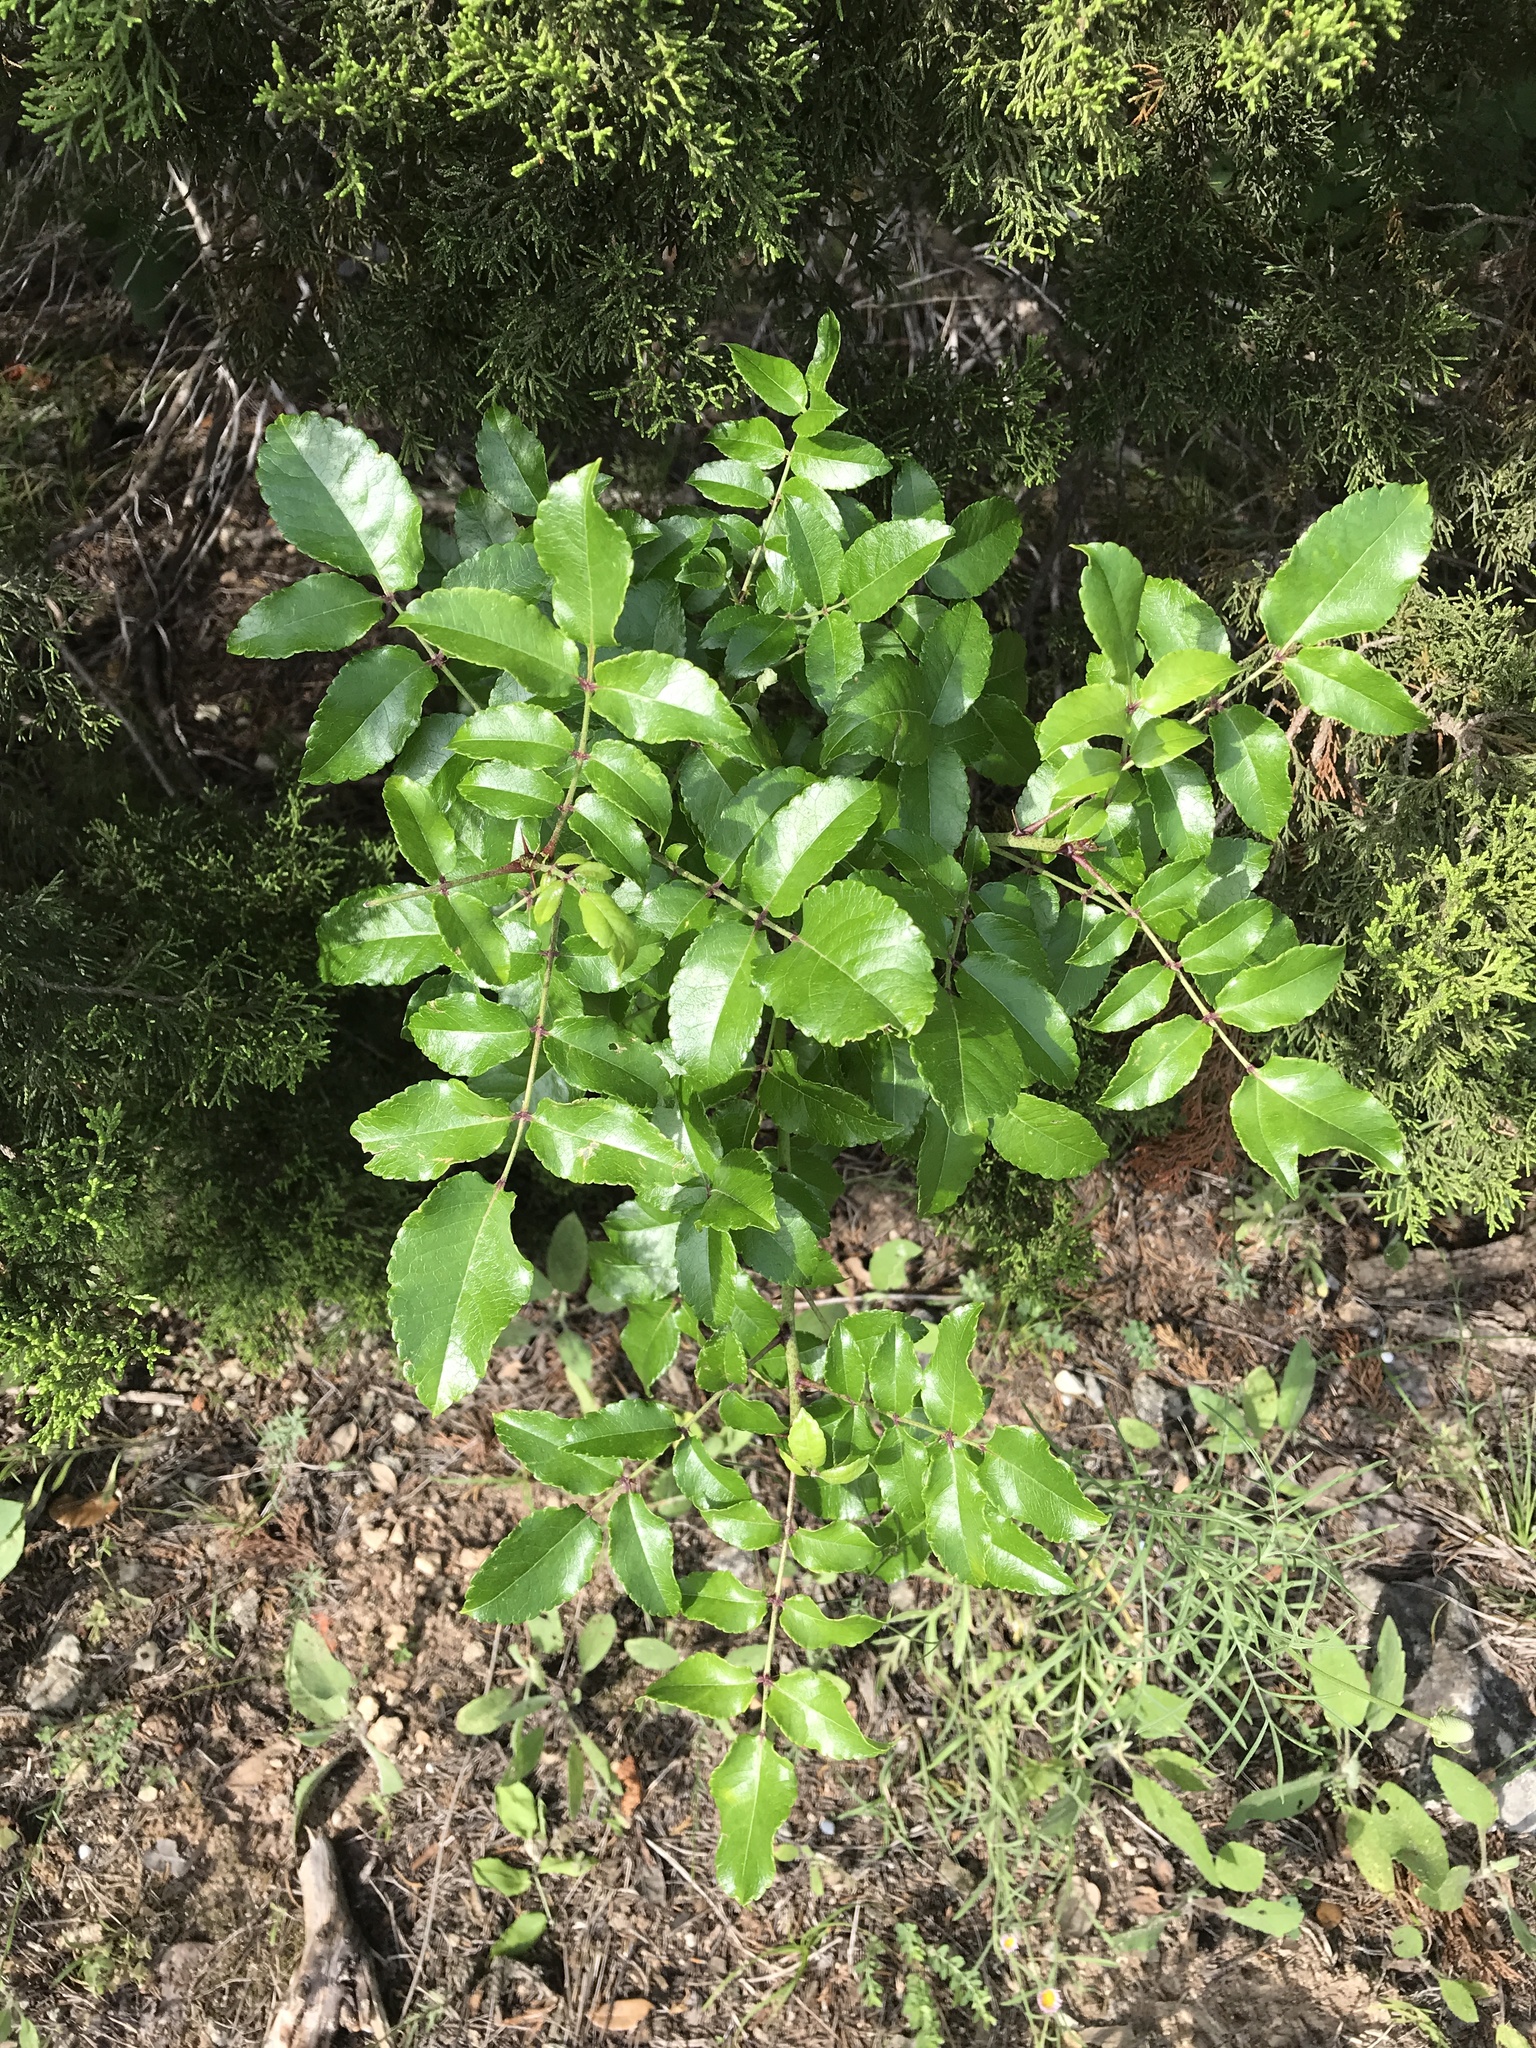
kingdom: Plantae
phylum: Tracheophyta
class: Magnoliopsida
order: Sapindales
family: Rutaceae
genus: Zanthoxylum
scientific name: Zanthoxylum clava-herculis
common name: Hercules'-club
